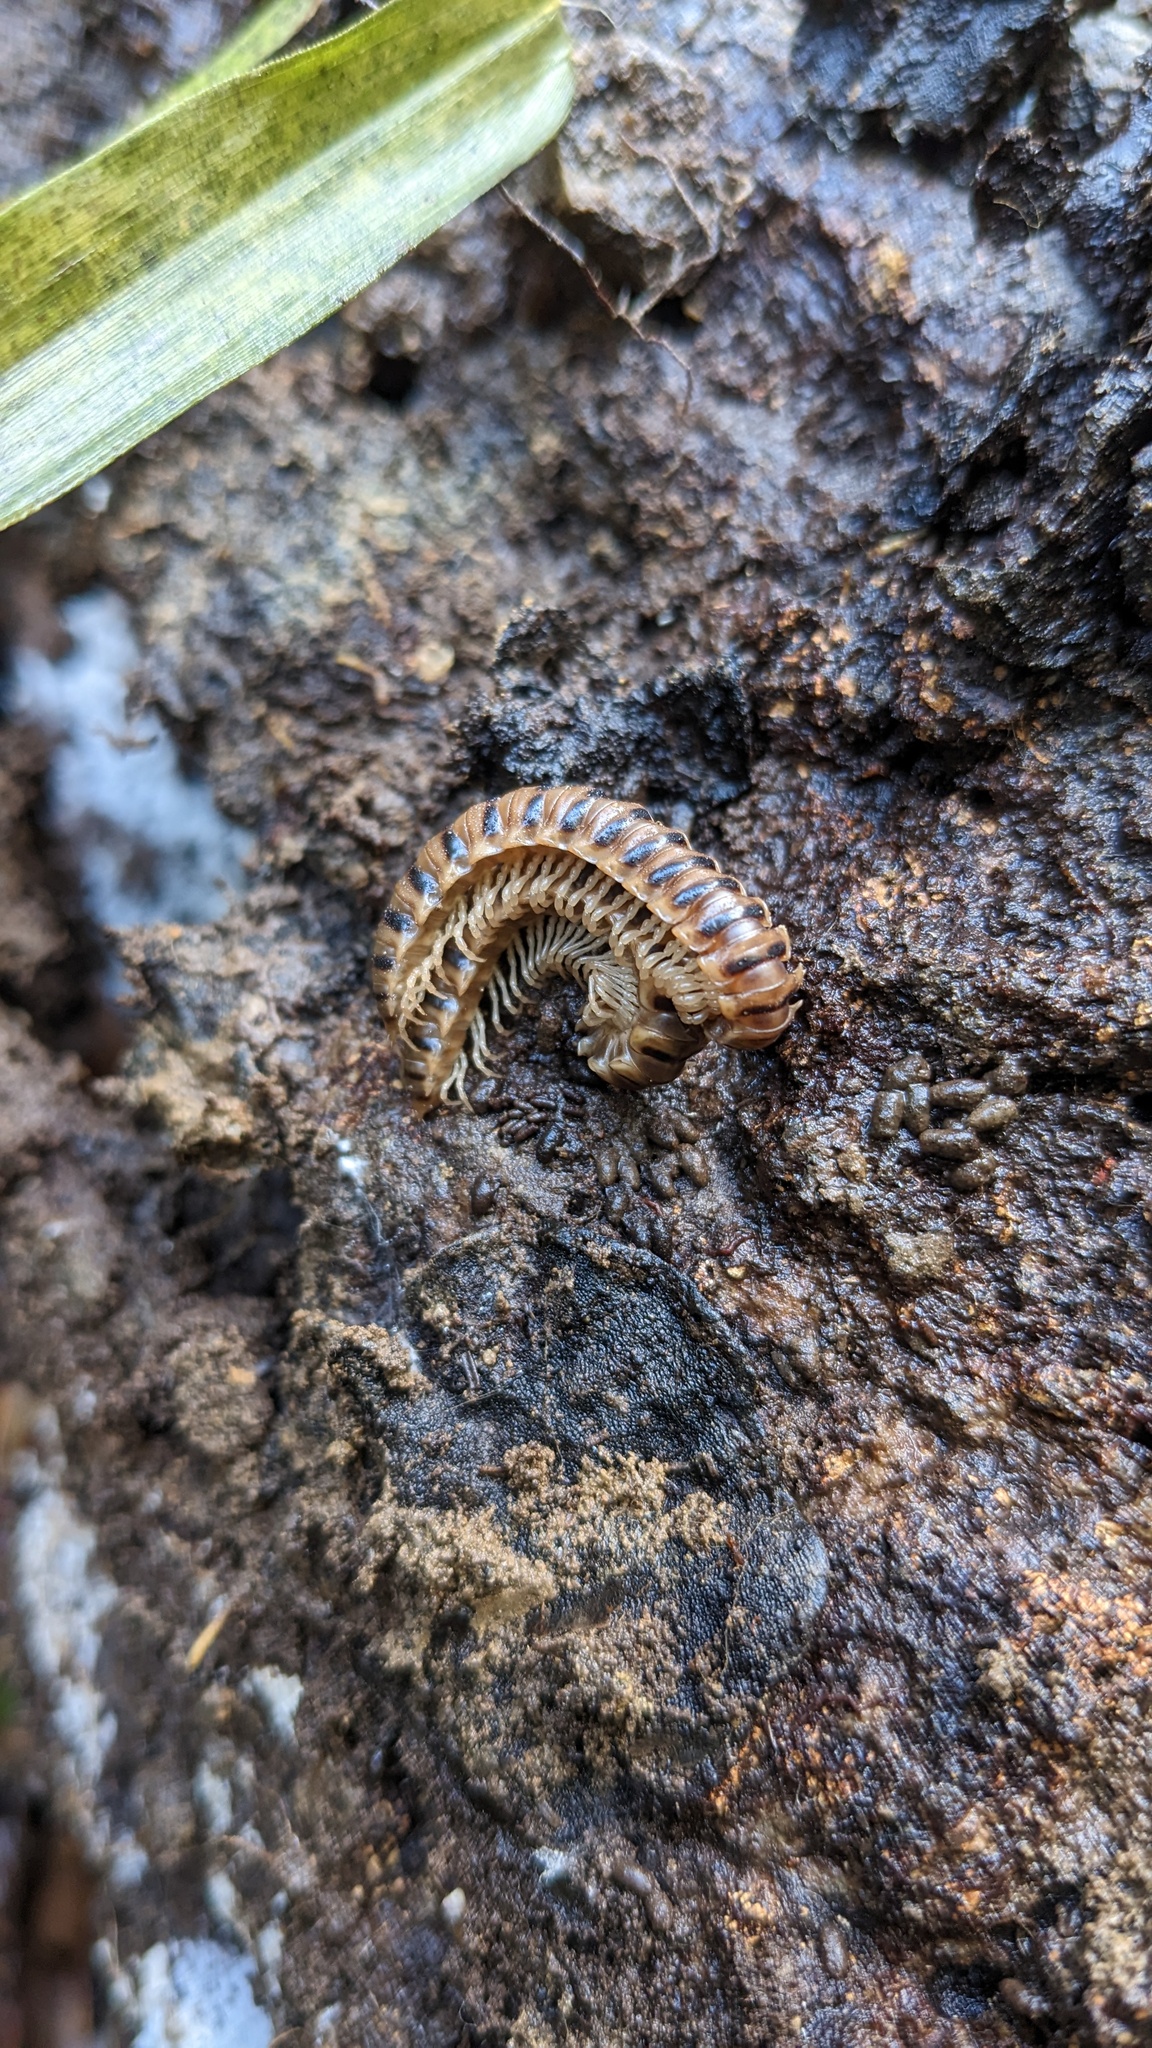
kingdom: Animalia
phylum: Arthropoda
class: Diplopoda
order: Polydesmida
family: Paradoxosomatidae
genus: Chamberlinius
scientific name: Chamberlinius hualienensis
